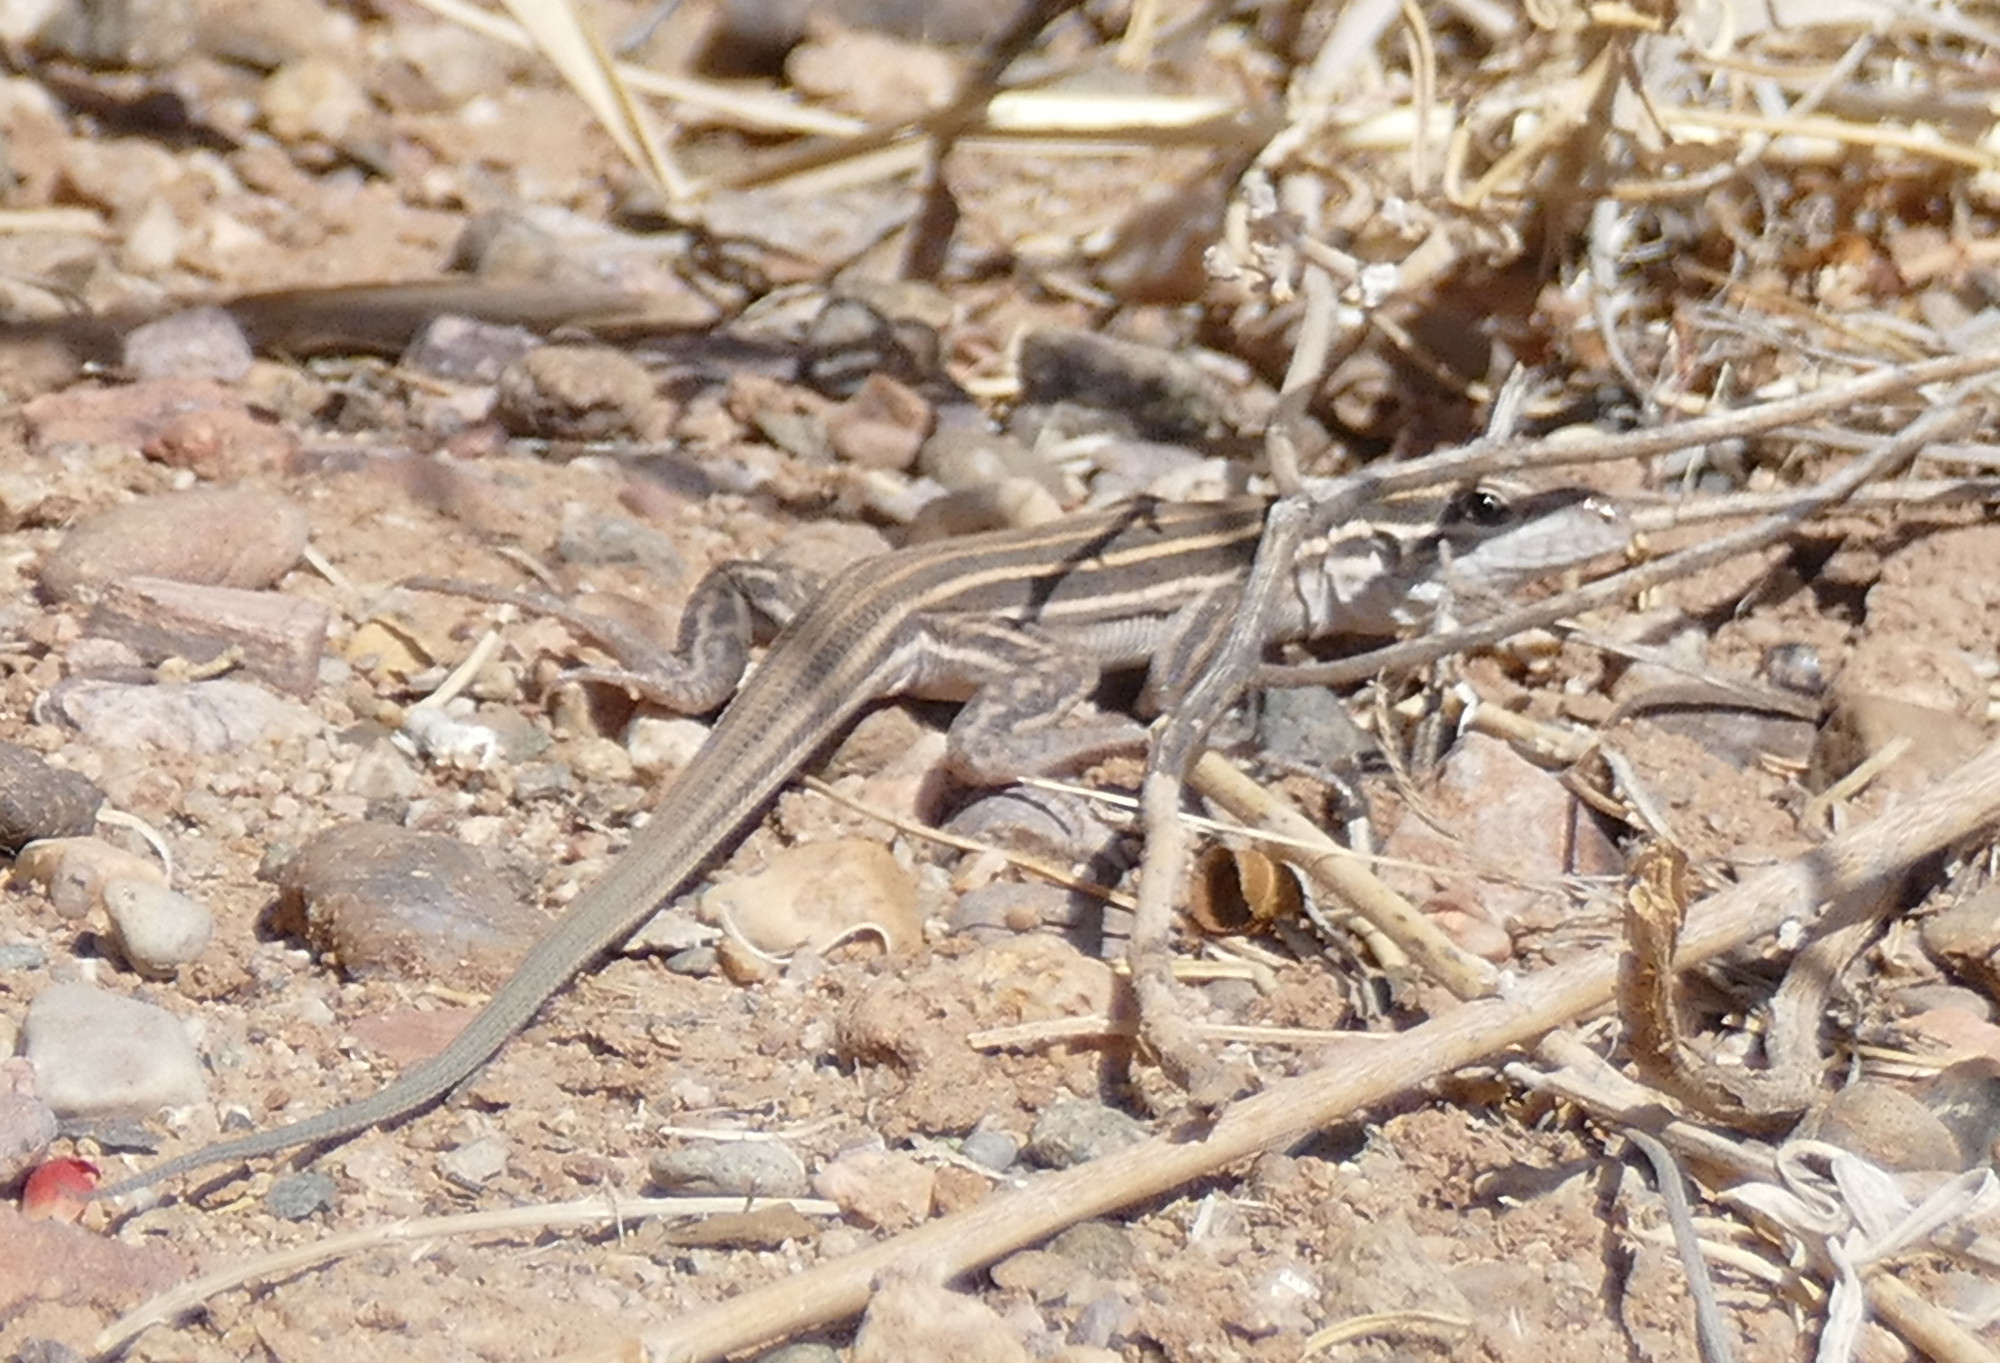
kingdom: Animalia
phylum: Chordata
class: Squamata
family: Teiidae
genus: Aspidoscelis
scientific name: Aspidoscelis uniparens
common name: Desert grassland whiptail
